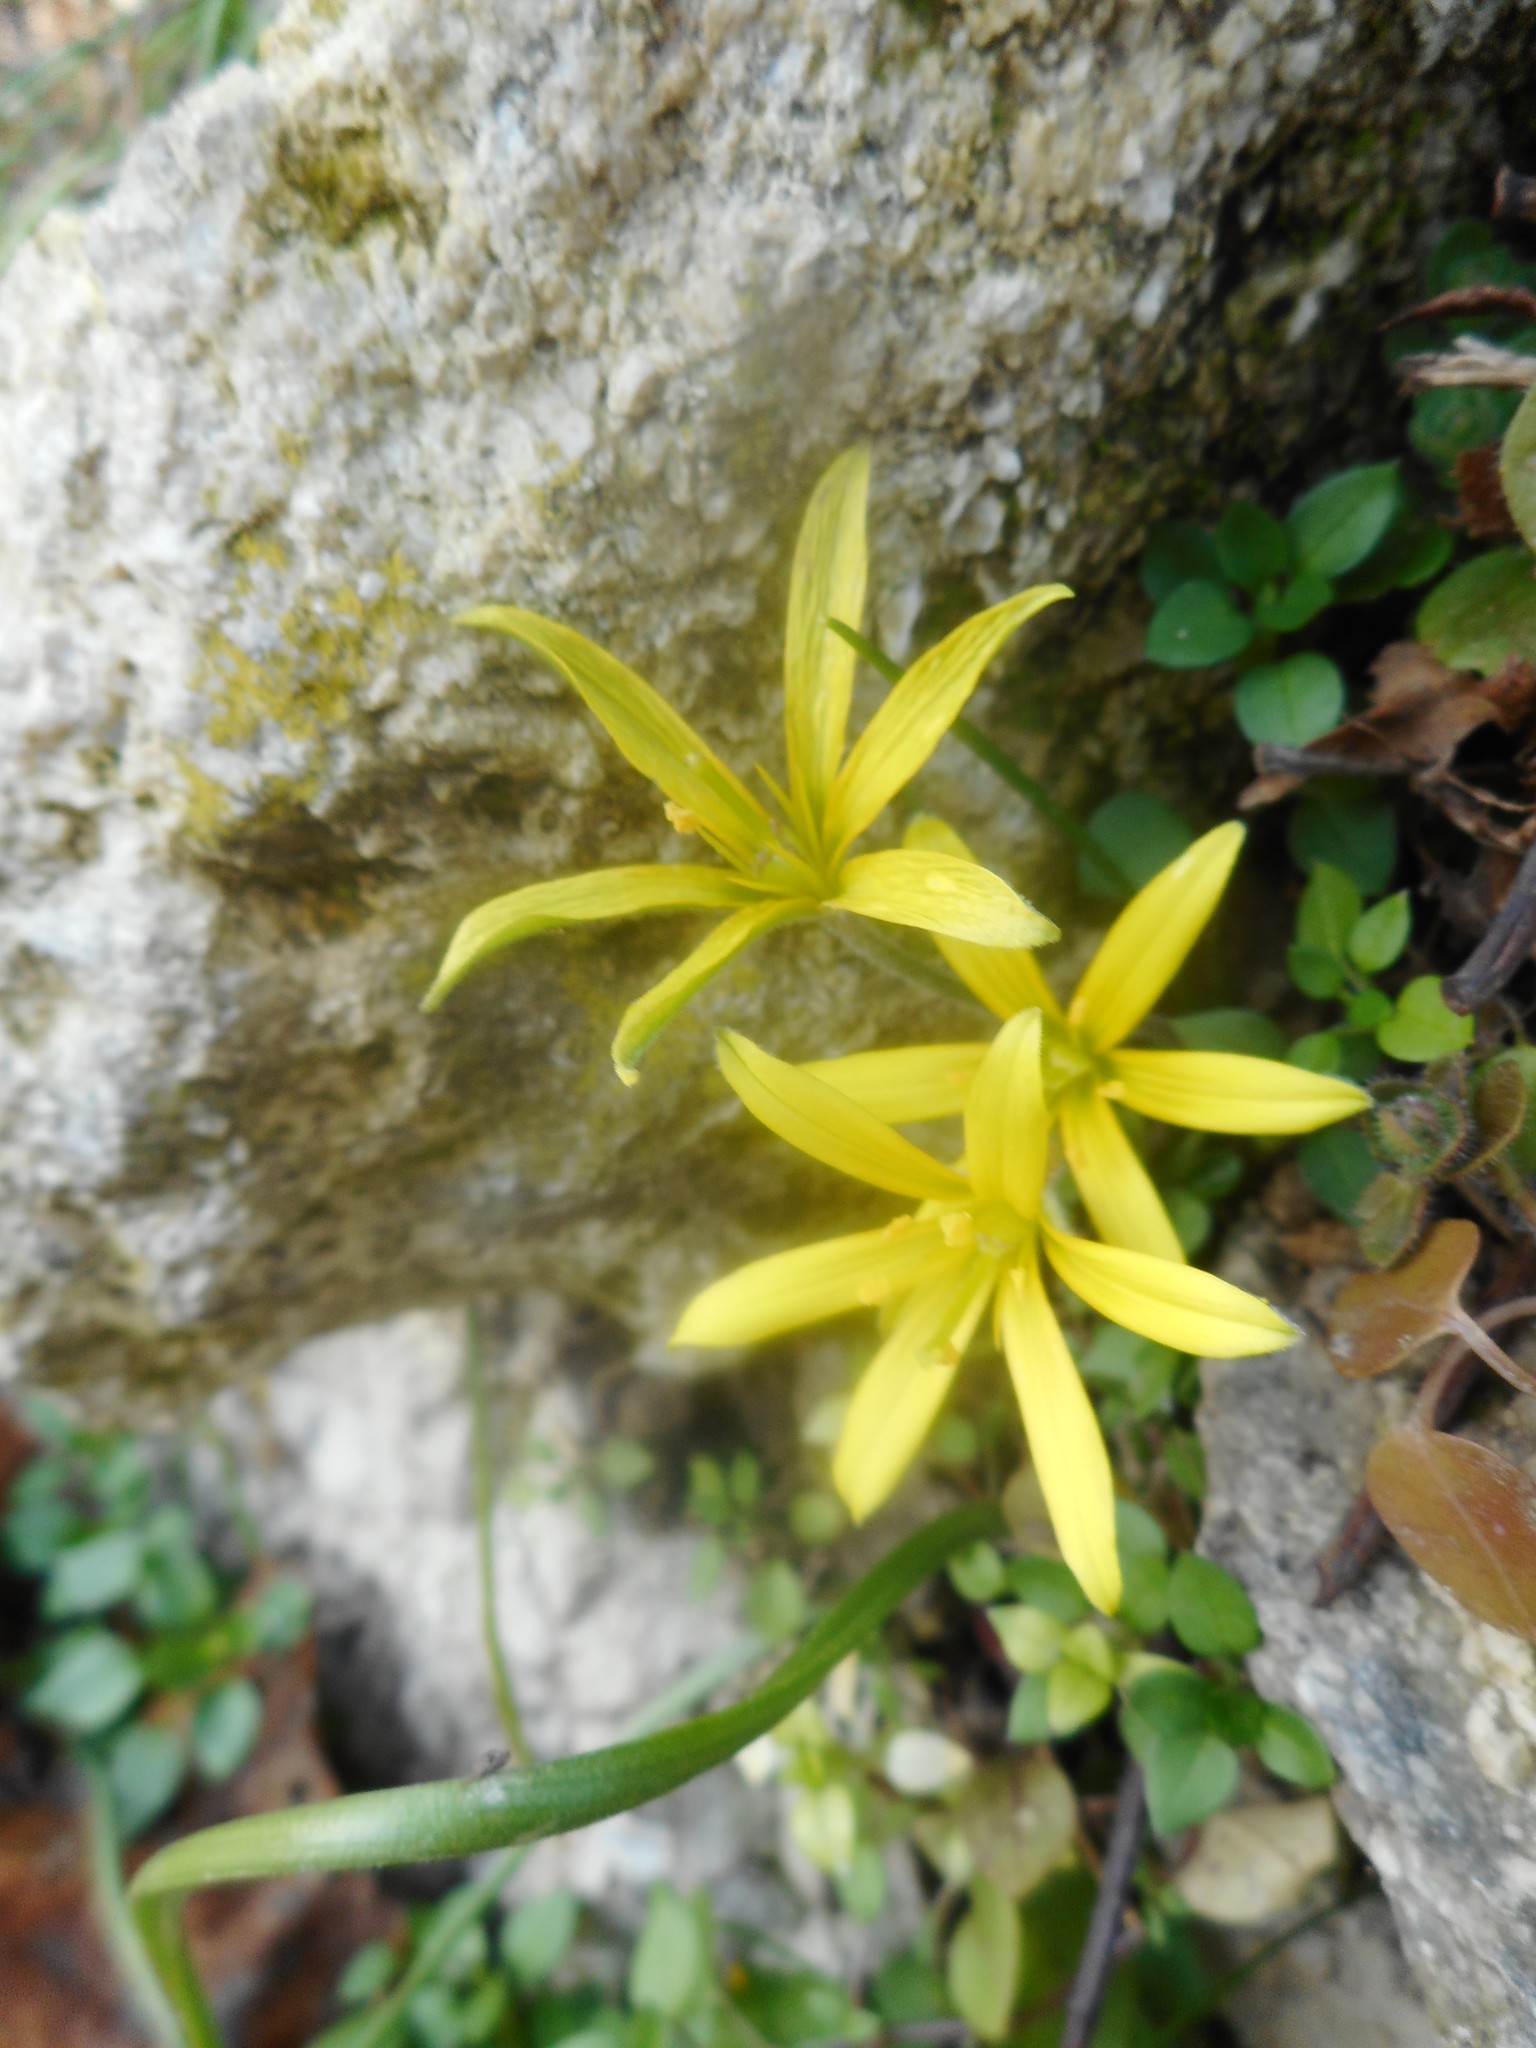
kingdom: Plantae
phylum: Tracheophyta
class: Liliopsida
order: Liliales
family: Liliaceae
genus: Gagea
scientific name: Gagea villosa
